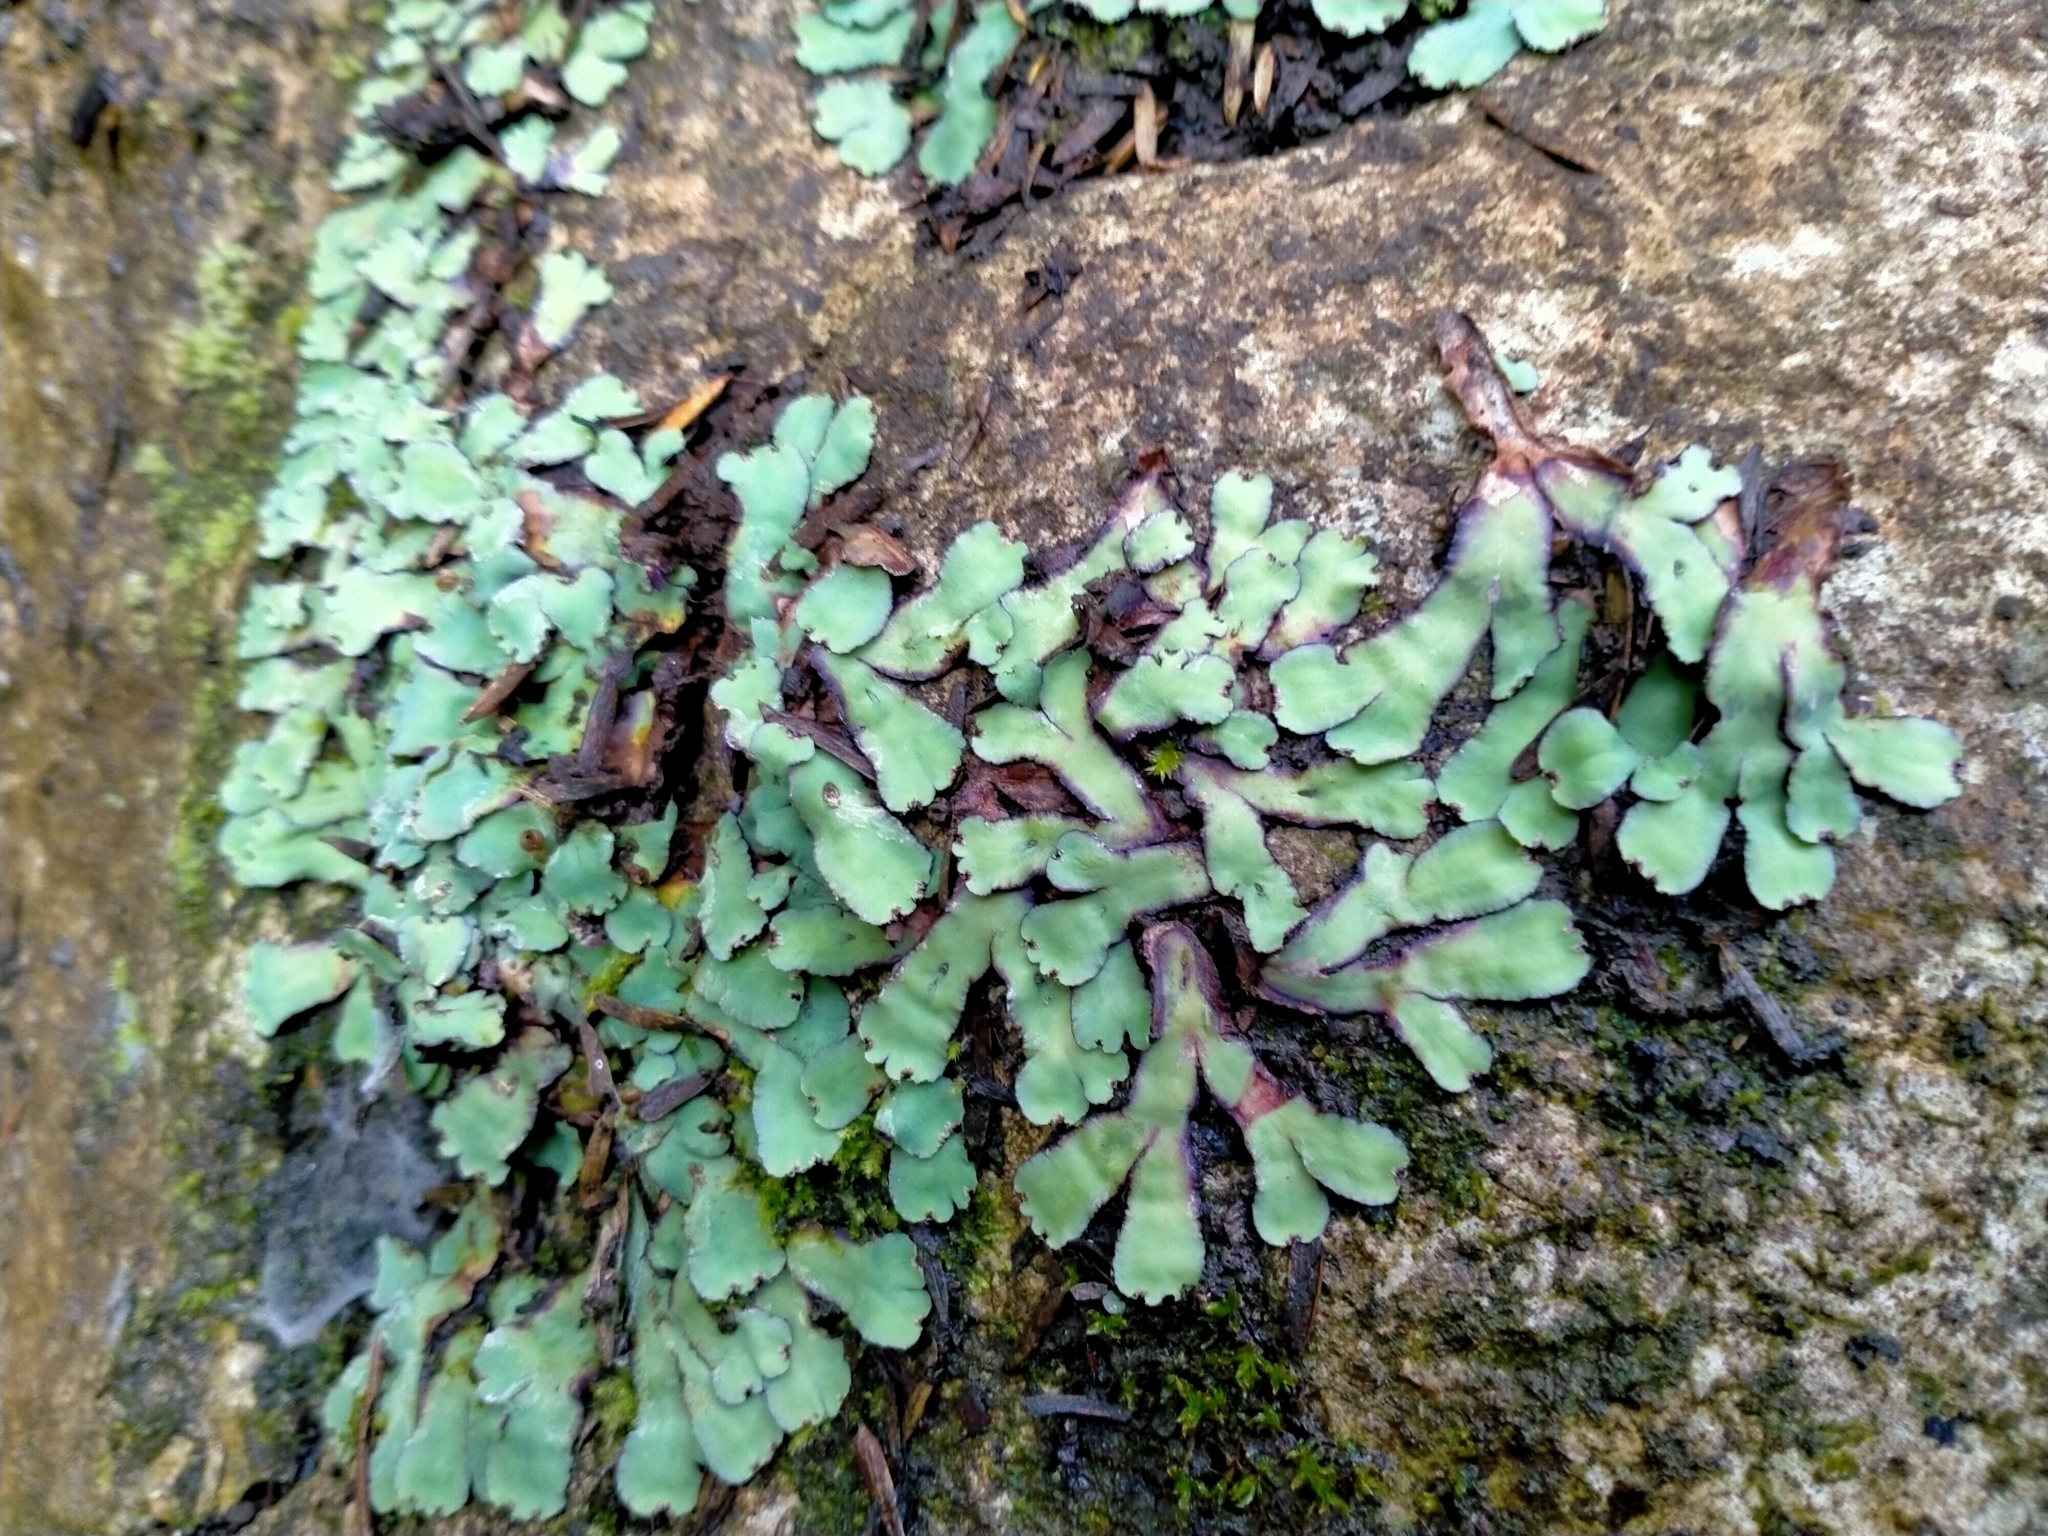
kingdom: Plantae
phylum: Marchantiophyta
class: Marchantiopsida
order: Marchantiales
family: Aytoniaceae
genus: Plagiochasma
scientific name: Plagiochasma rupestre
